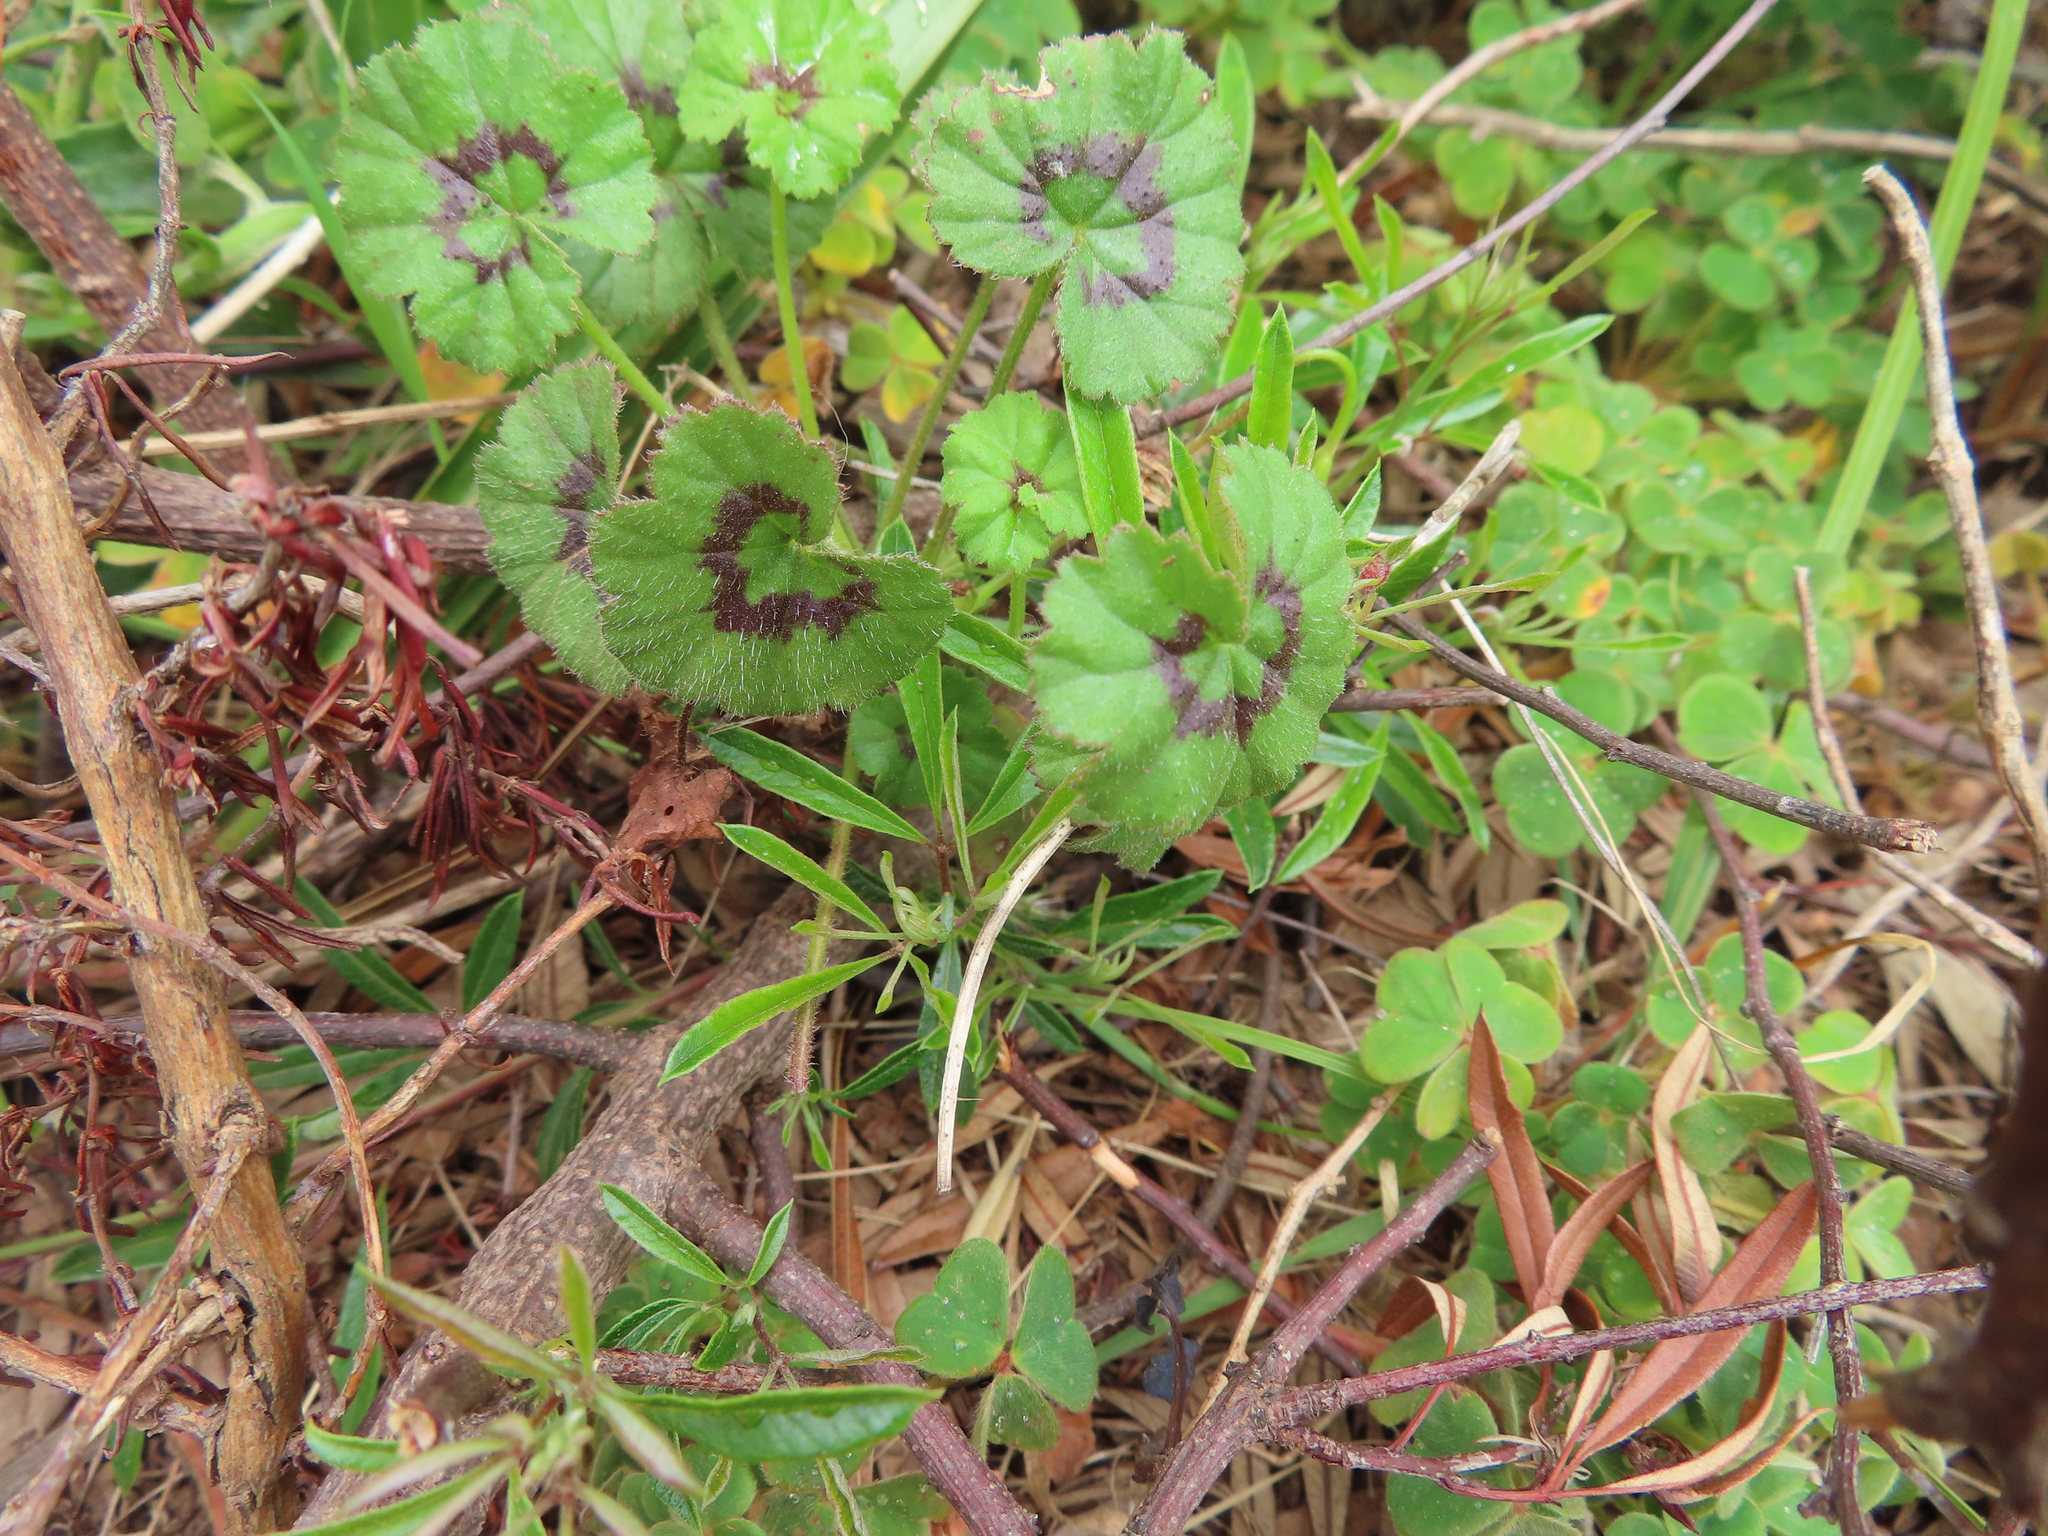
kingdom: Plantae
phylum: Tracheophyta
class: Magnoliopsida
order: Geraniales
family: Geraniaceae
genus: Pelargonium
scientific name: Pelargonium elongatum
